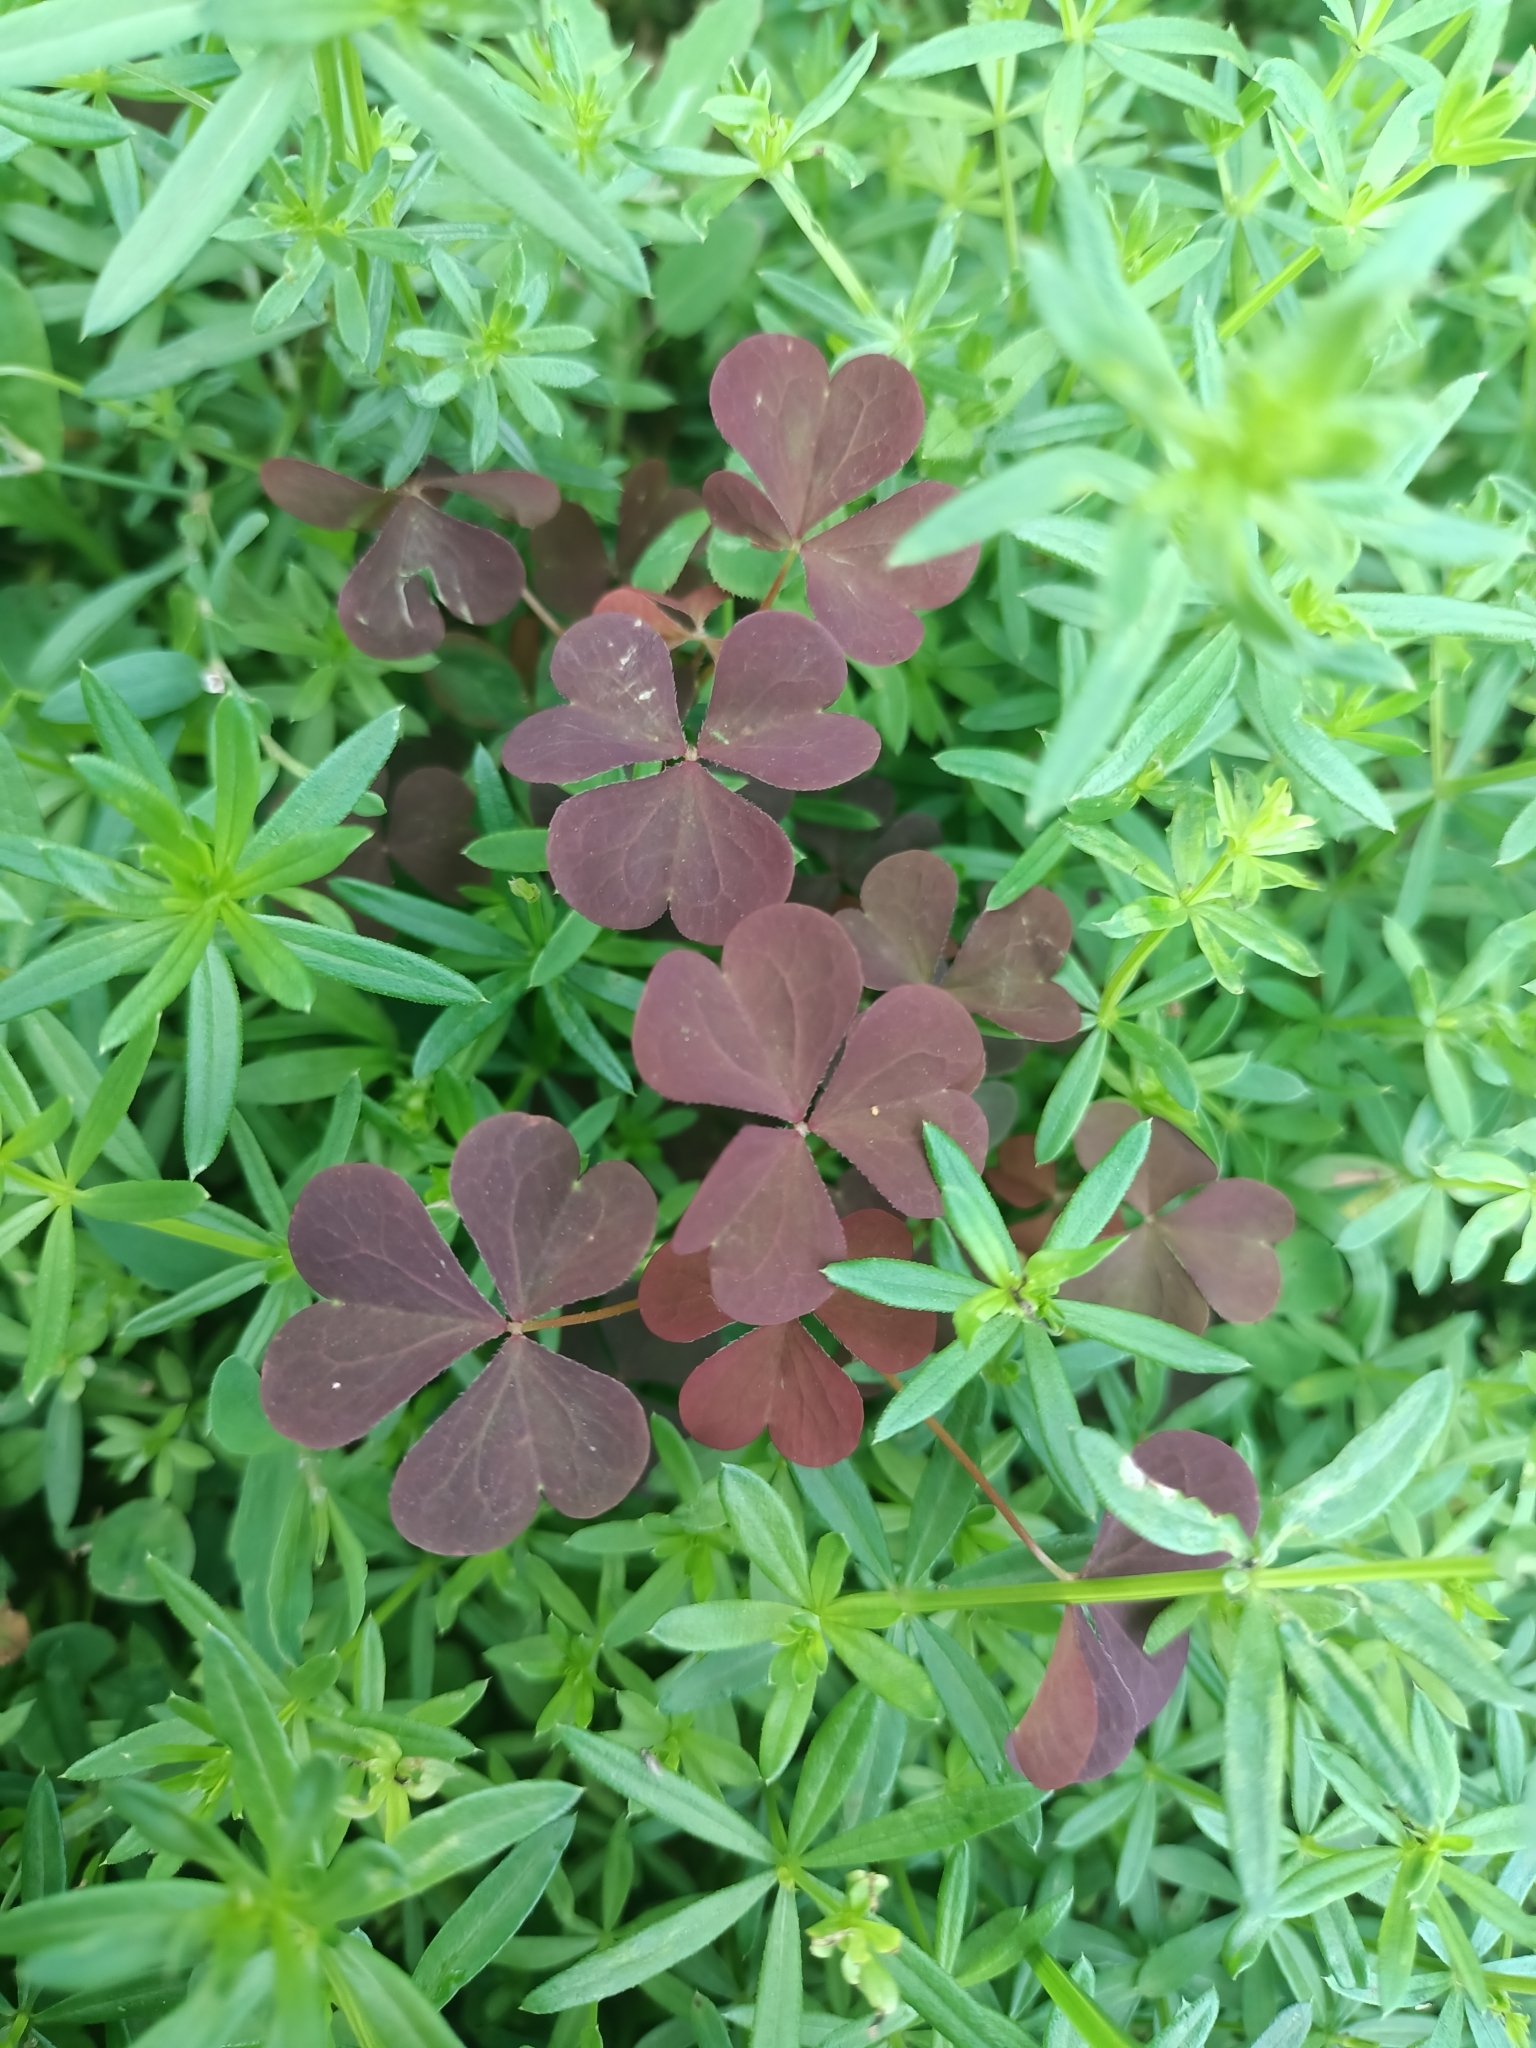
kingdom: Plantae
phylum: Tracheophyta
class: Magnoliopsida
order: Oxalidales
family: Oxalidaceae
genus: Oxalis
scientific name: Oxalis stricta
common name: Upright yellow-sorrel
